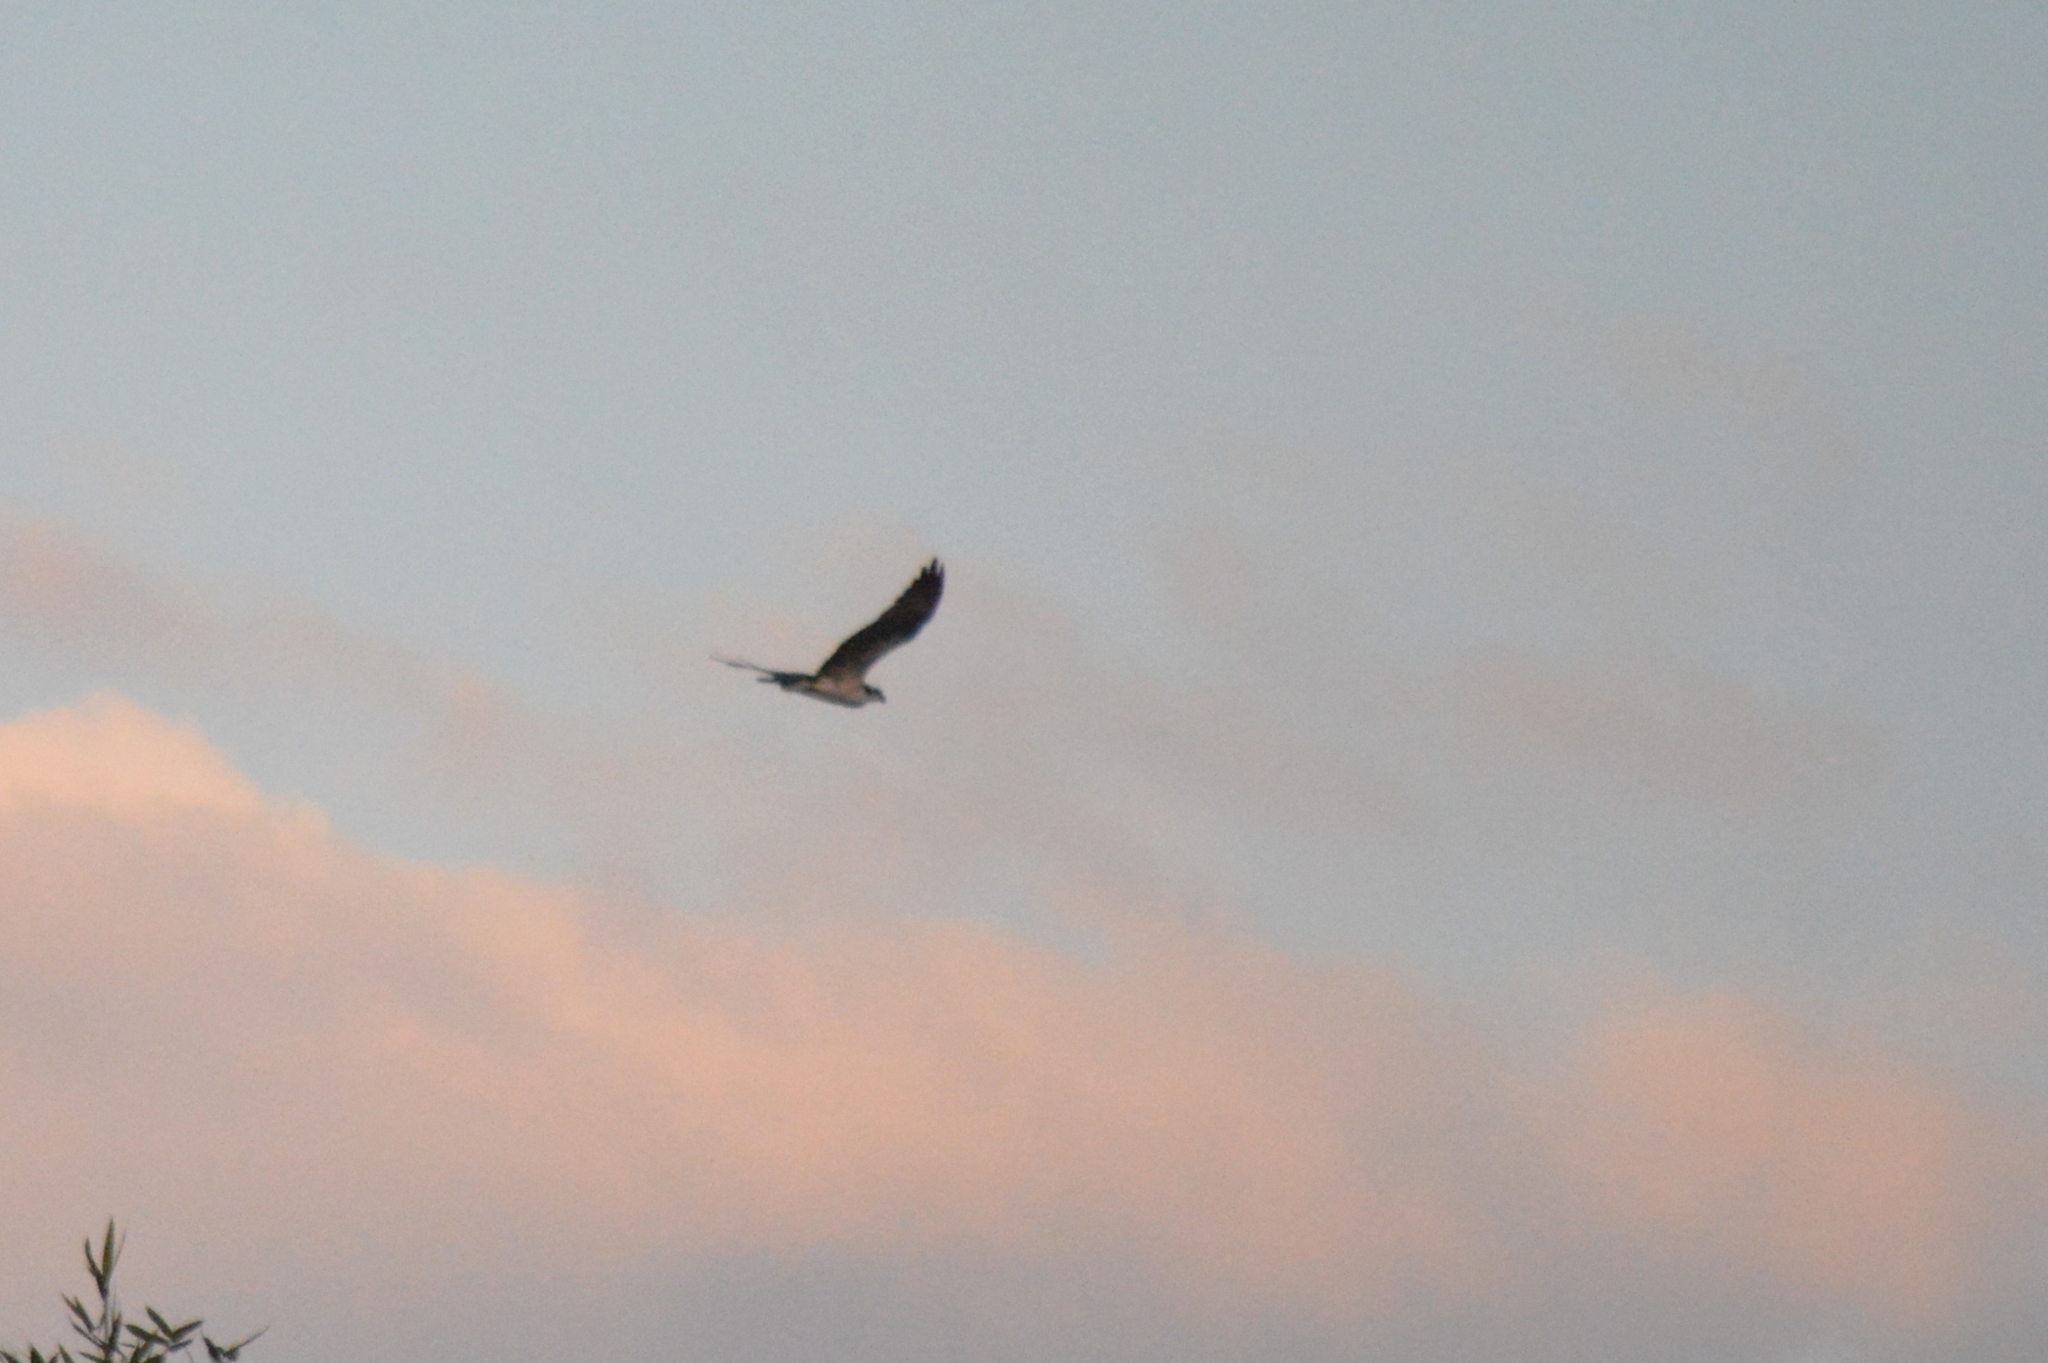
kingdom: Animalia
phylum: Chordata
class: Aves
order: Accipitriformes
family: Pandionidae
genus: Pandion
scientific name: Pandion haliaetus
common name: Osprey
